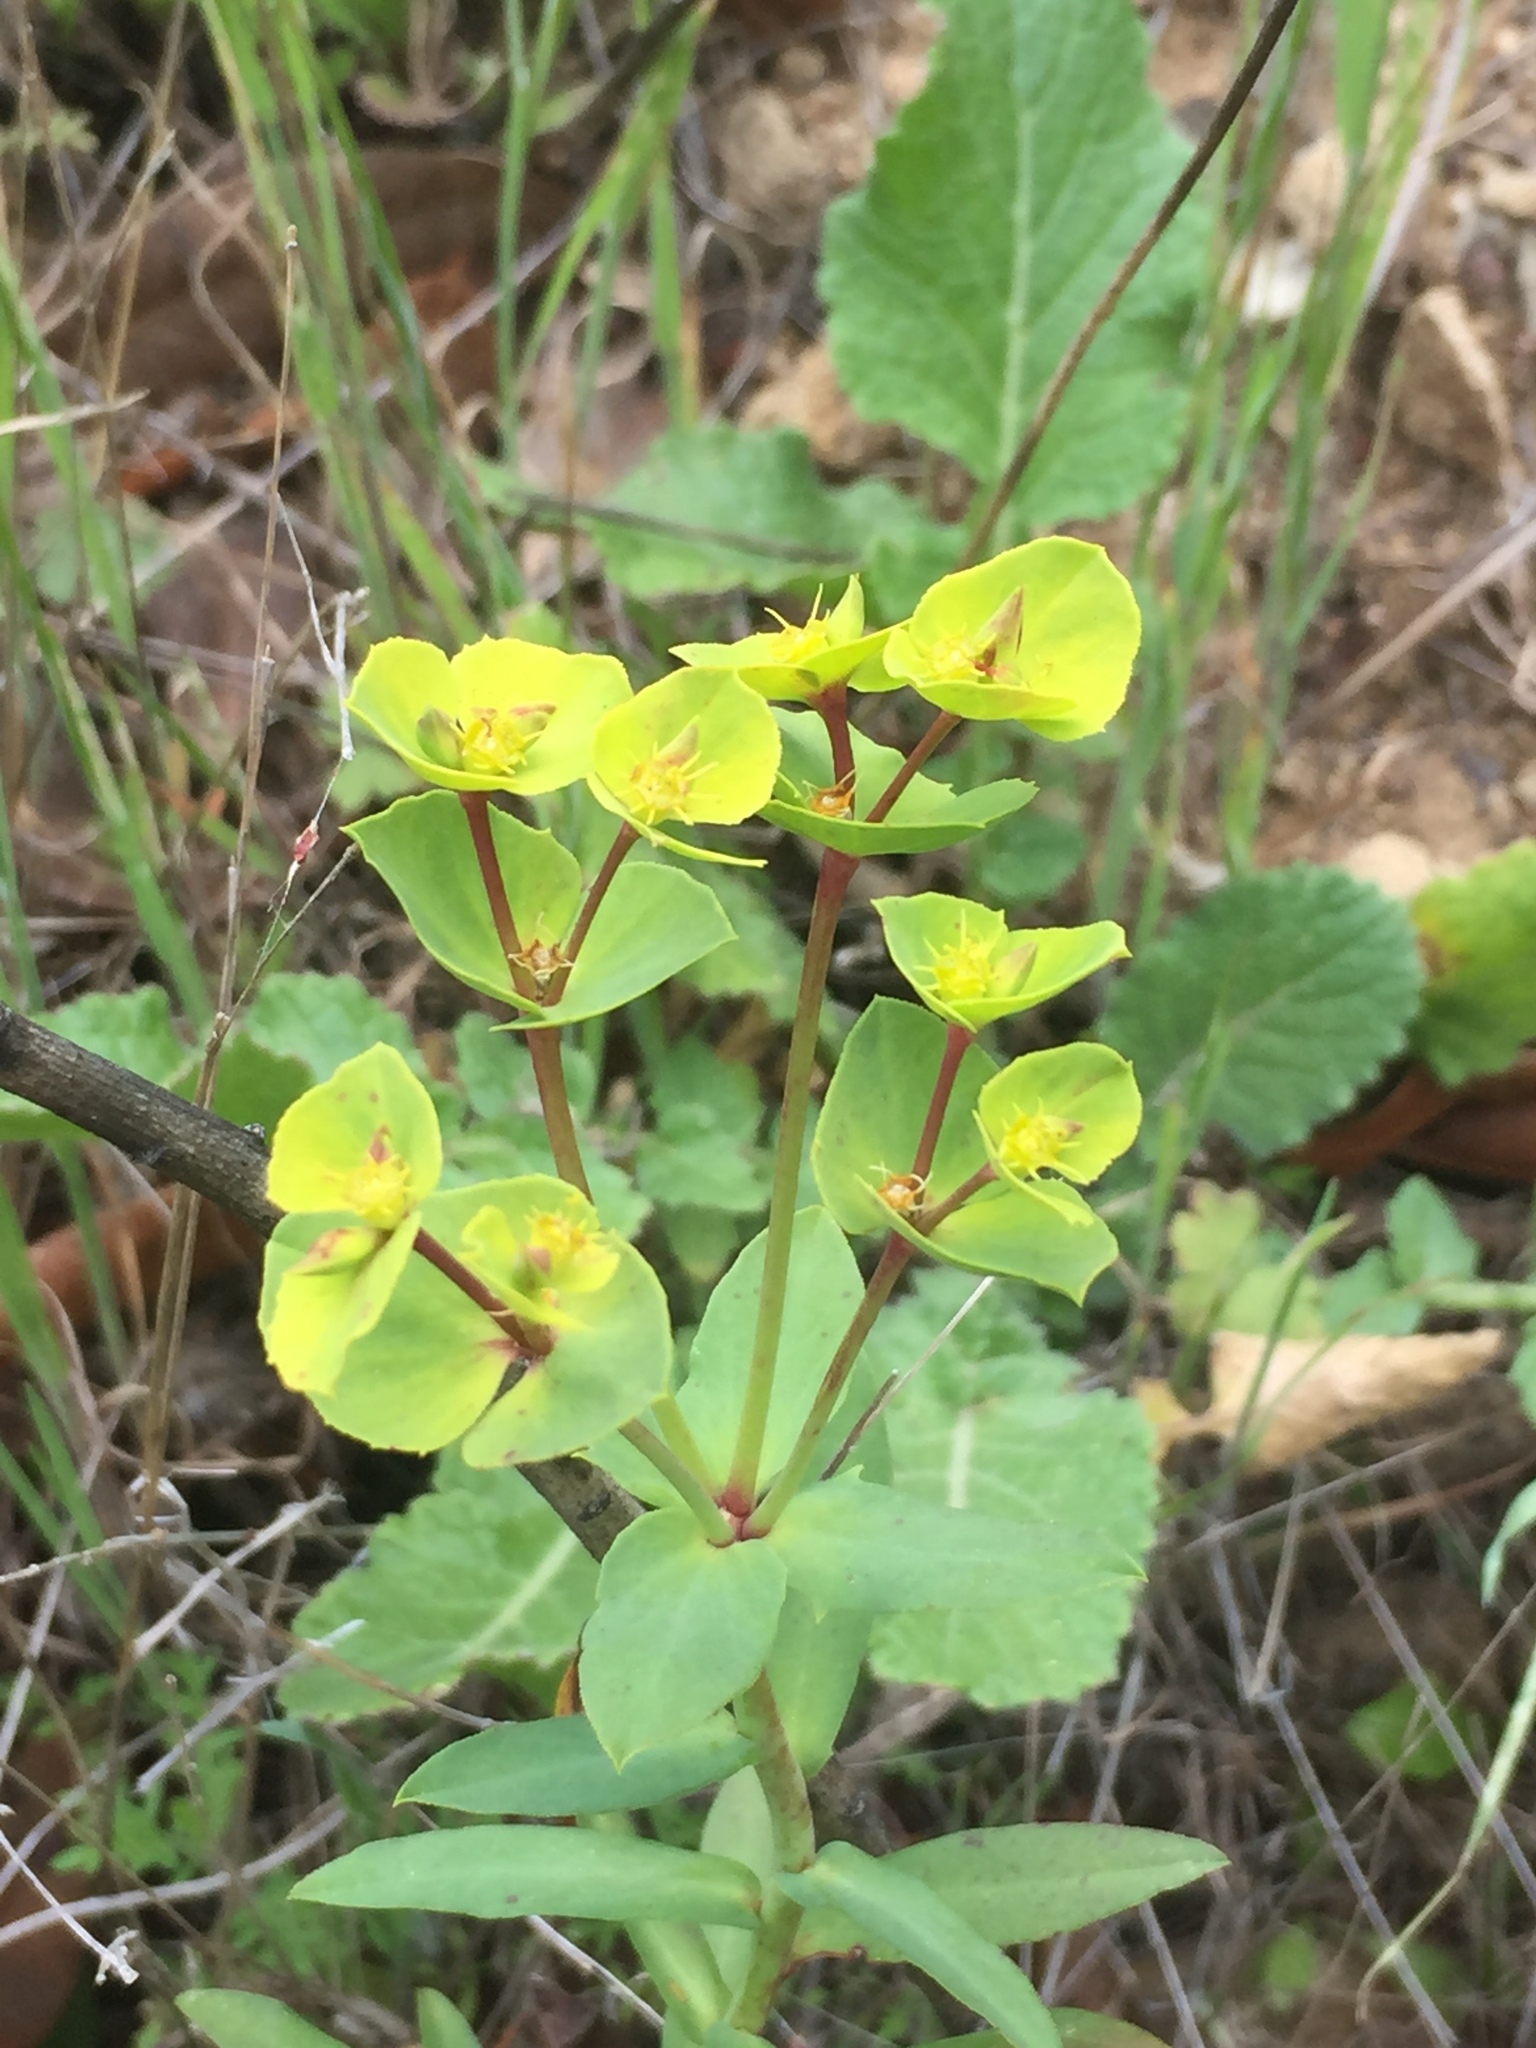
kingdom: Plantae
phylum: Tracheophyta
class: Magnoliopsida
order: Malpighiales
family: Euphorbiaceae
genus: Euphorbia
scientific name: Euphorbia terracina
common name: Geraldton carnation weed
